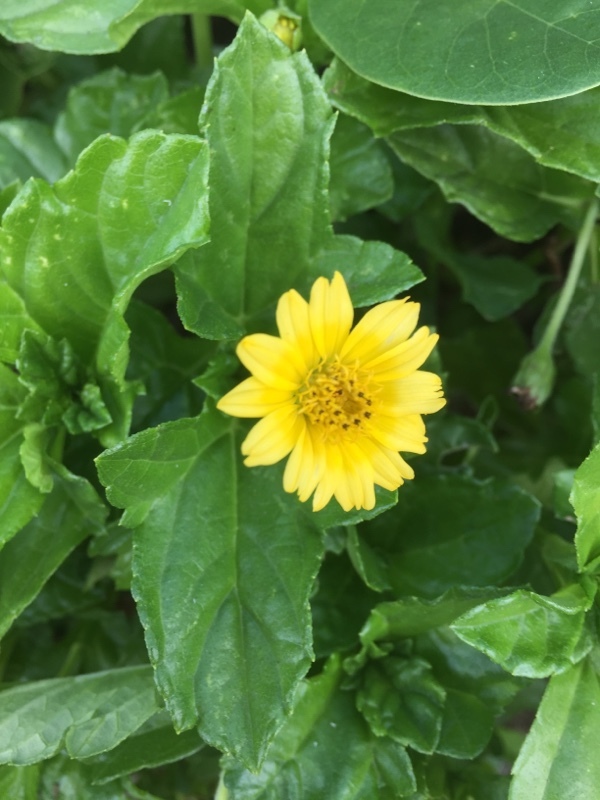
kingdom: Plantae
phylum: Tracheophyta
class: Magnoliopsida
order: Asterales
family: Asteraceae
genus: Sphagneticola
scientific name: Sphagneticola trilobata
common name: Bay biscayne creeping-oxeye
